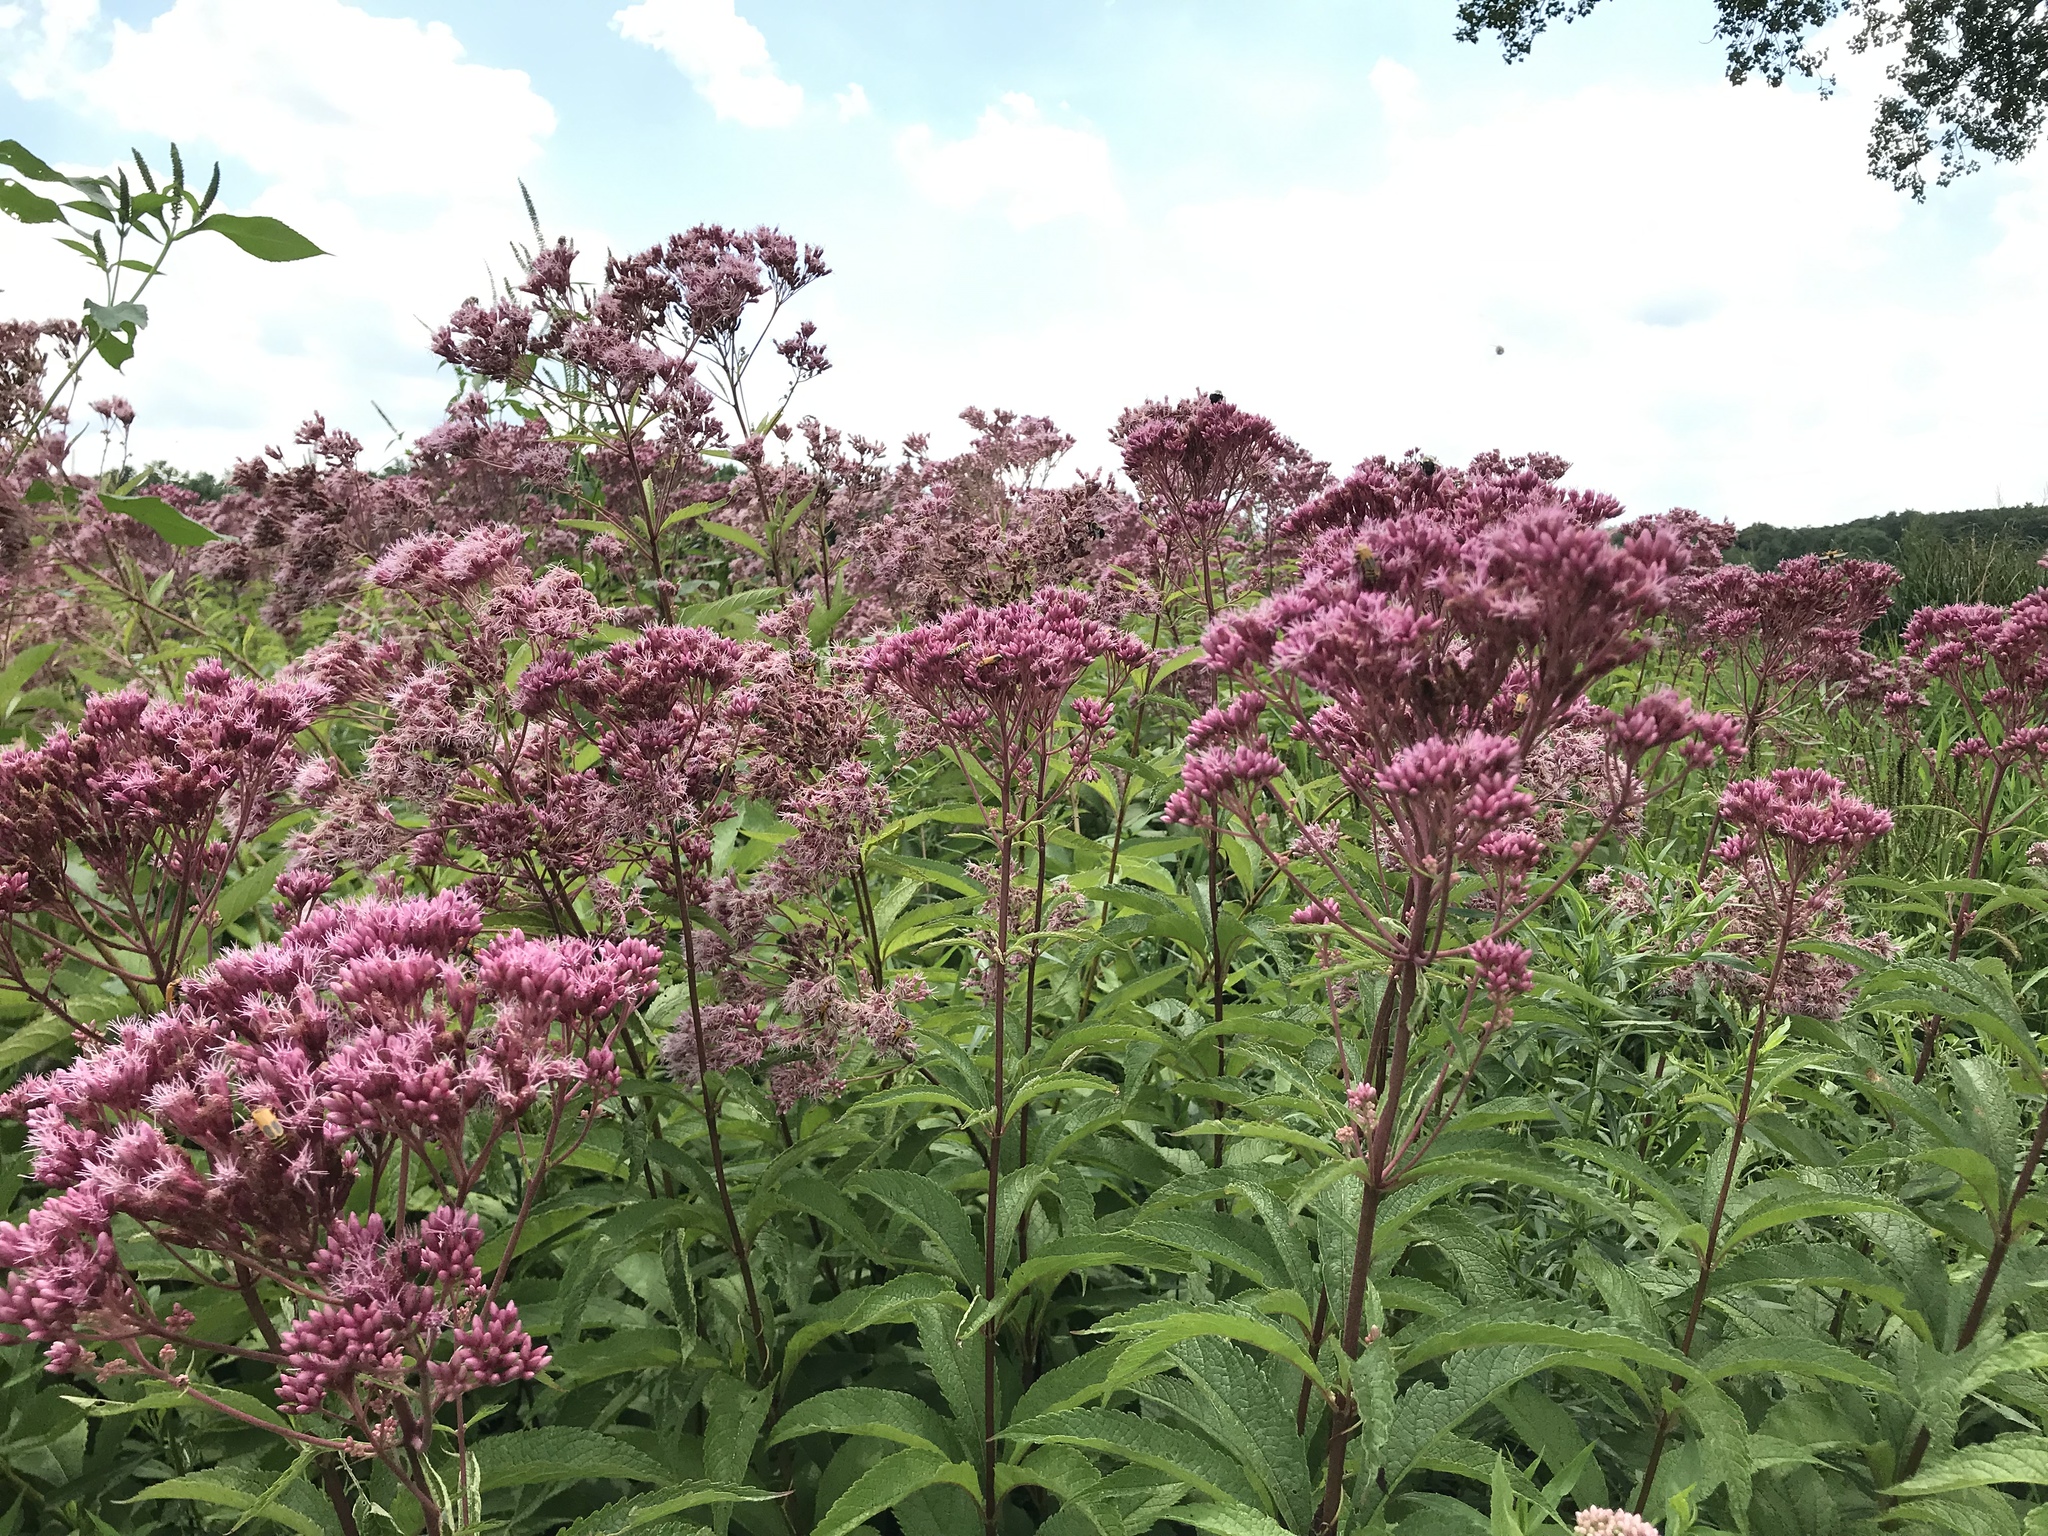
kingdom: Plantae
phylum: Tracheophyta
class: Magnoliopsida
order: Asterales
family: Asteraceae
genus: Eutrochium
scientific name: Eutrochium maculatum
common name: Spotted joe pye weed
